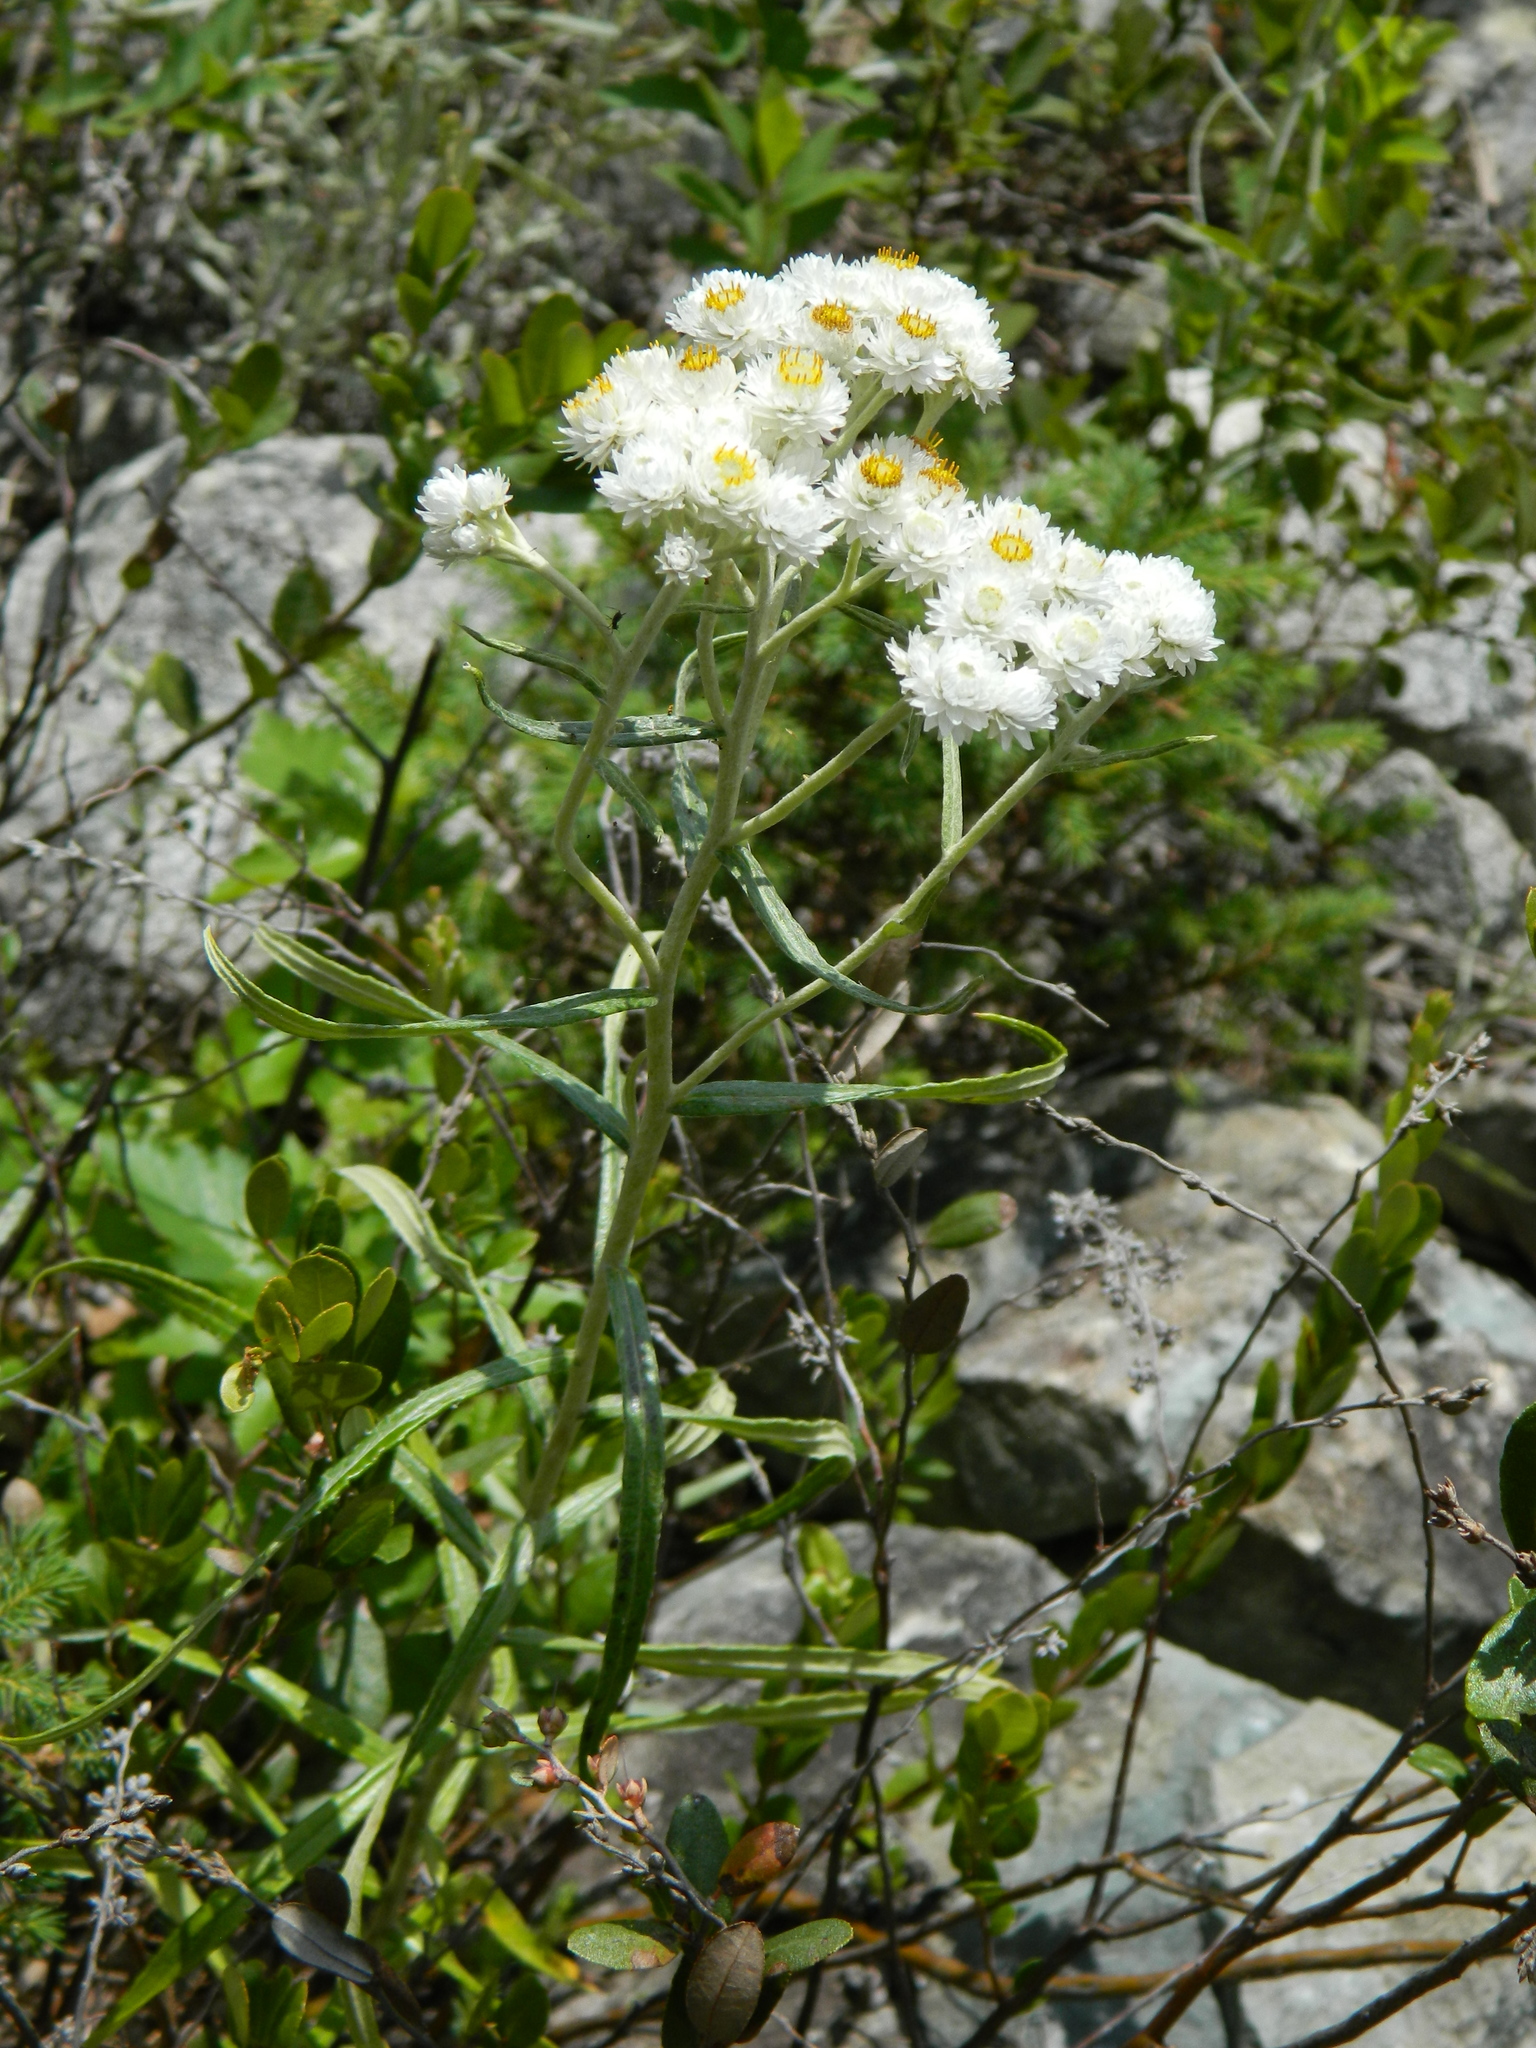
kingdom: Plantae
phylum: Tracheophyta
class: Magnoliopsida
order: Asterales
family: Asteraceae
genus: Anaphalis
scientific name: Anaphalis margaritacea
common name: Pearly everlasting
